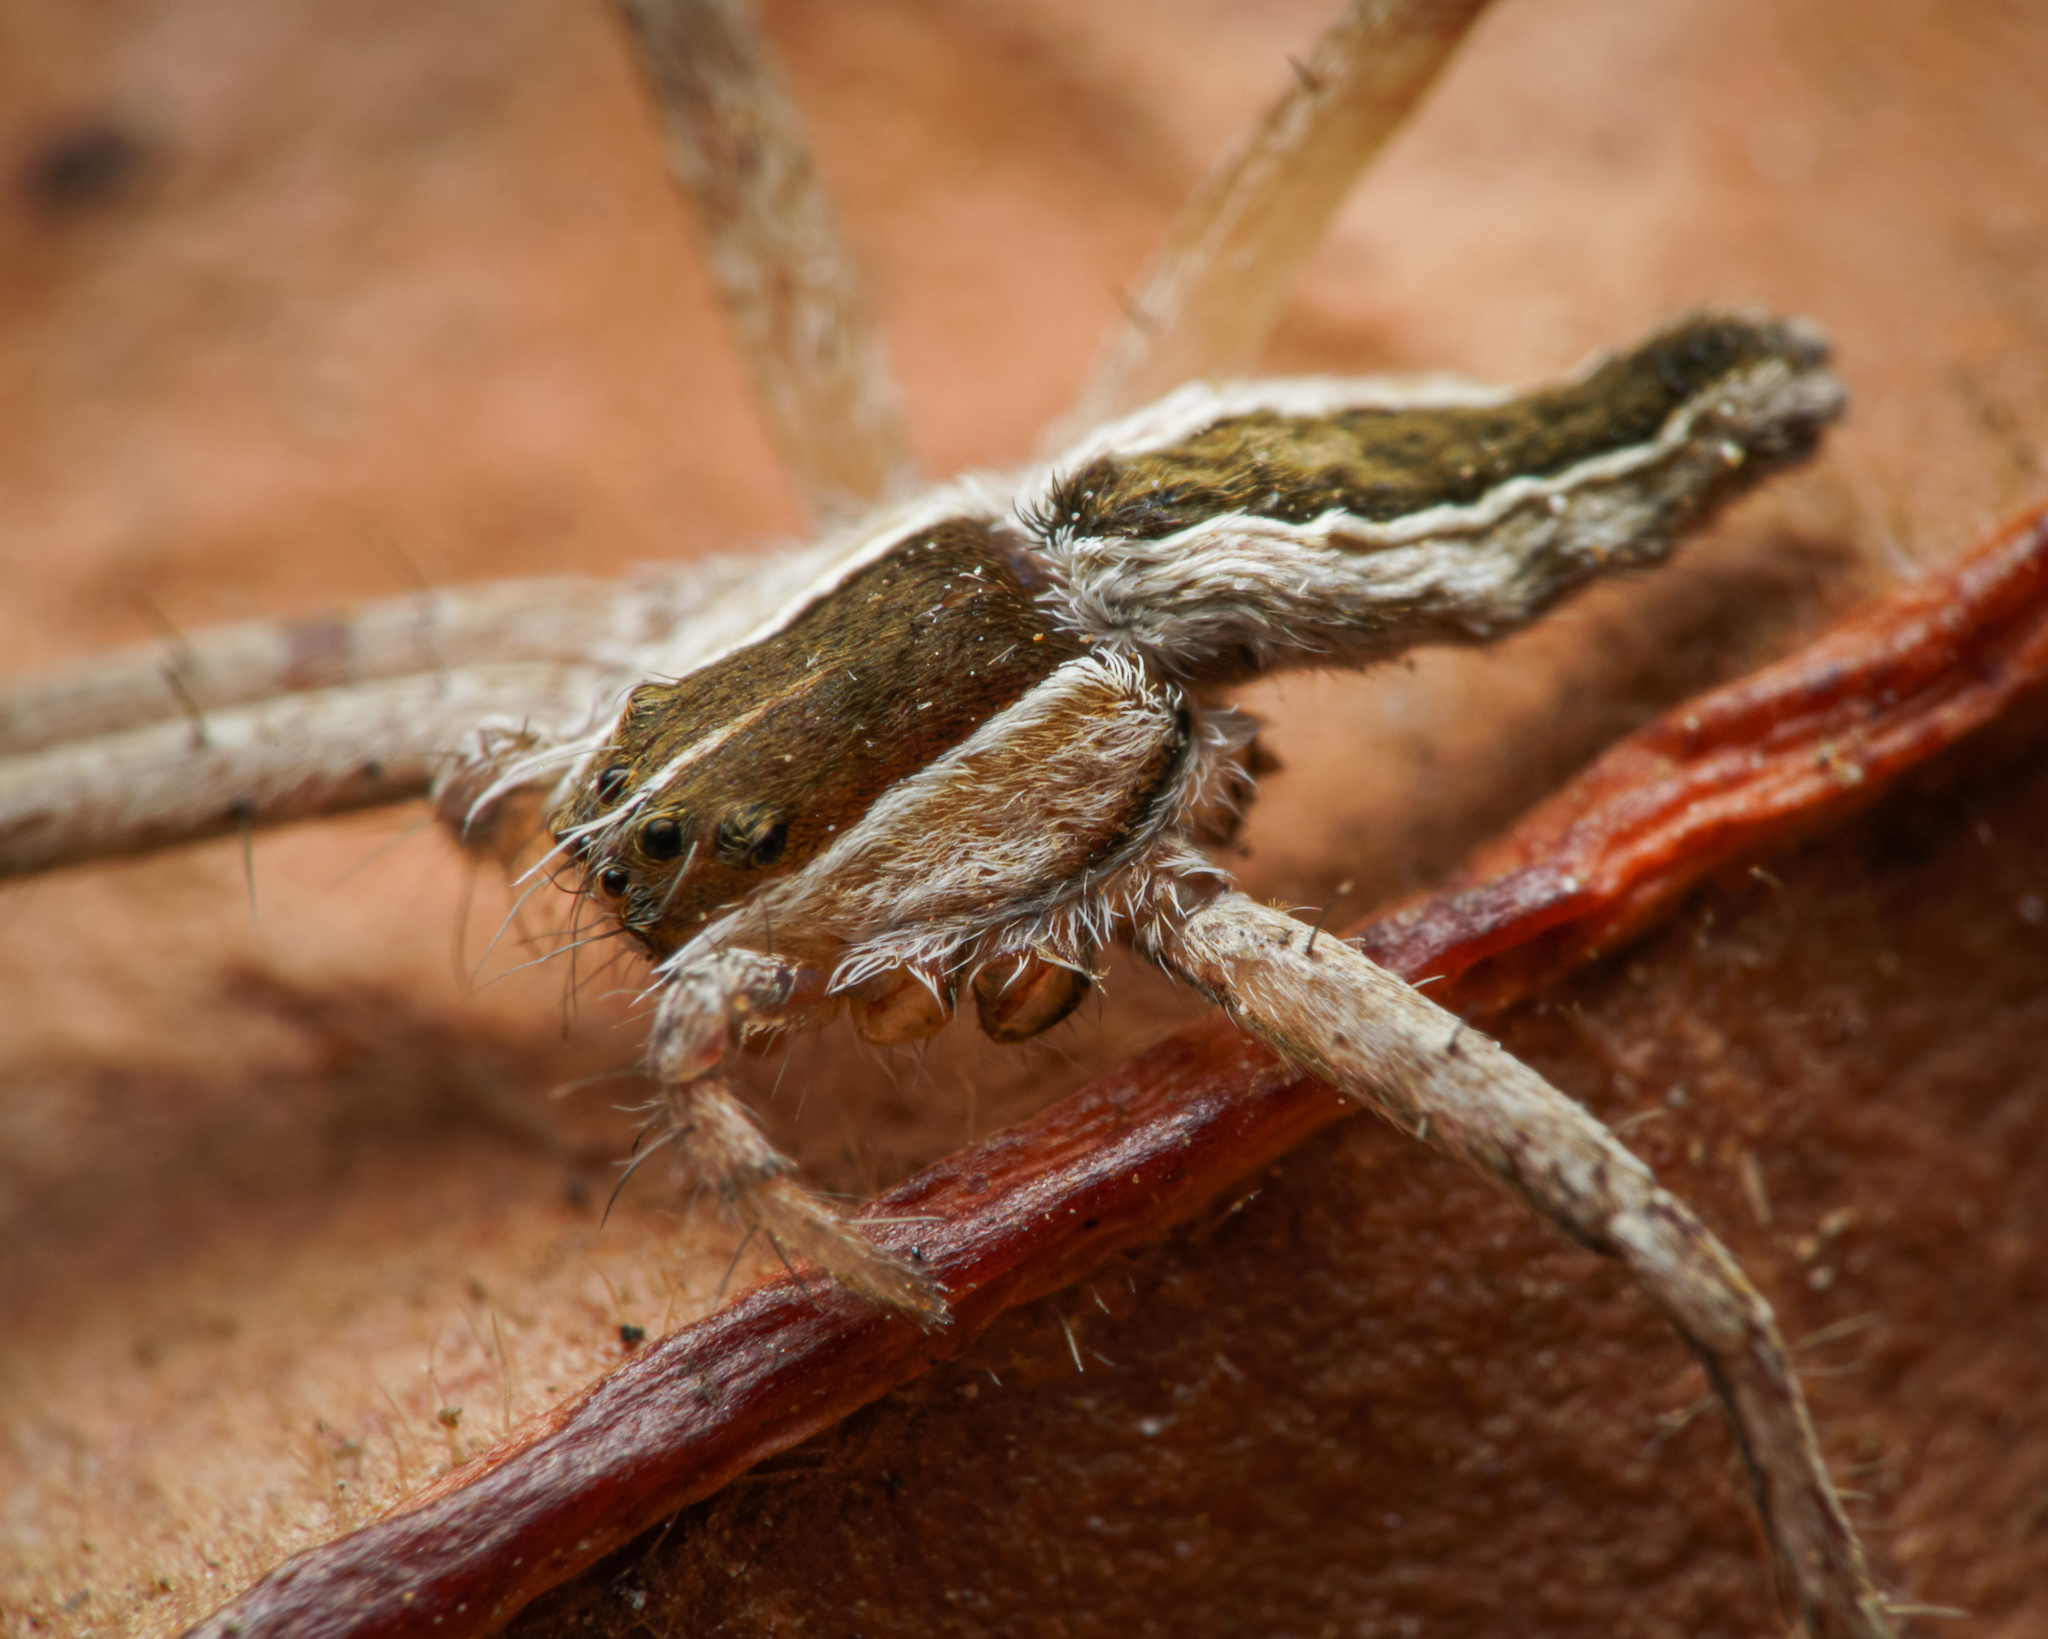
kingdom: Animalia
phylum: Arthropoda
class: Arachnida
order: Araneae
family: Pisauridae
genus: Perenethis
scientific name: Perenethis venusta
